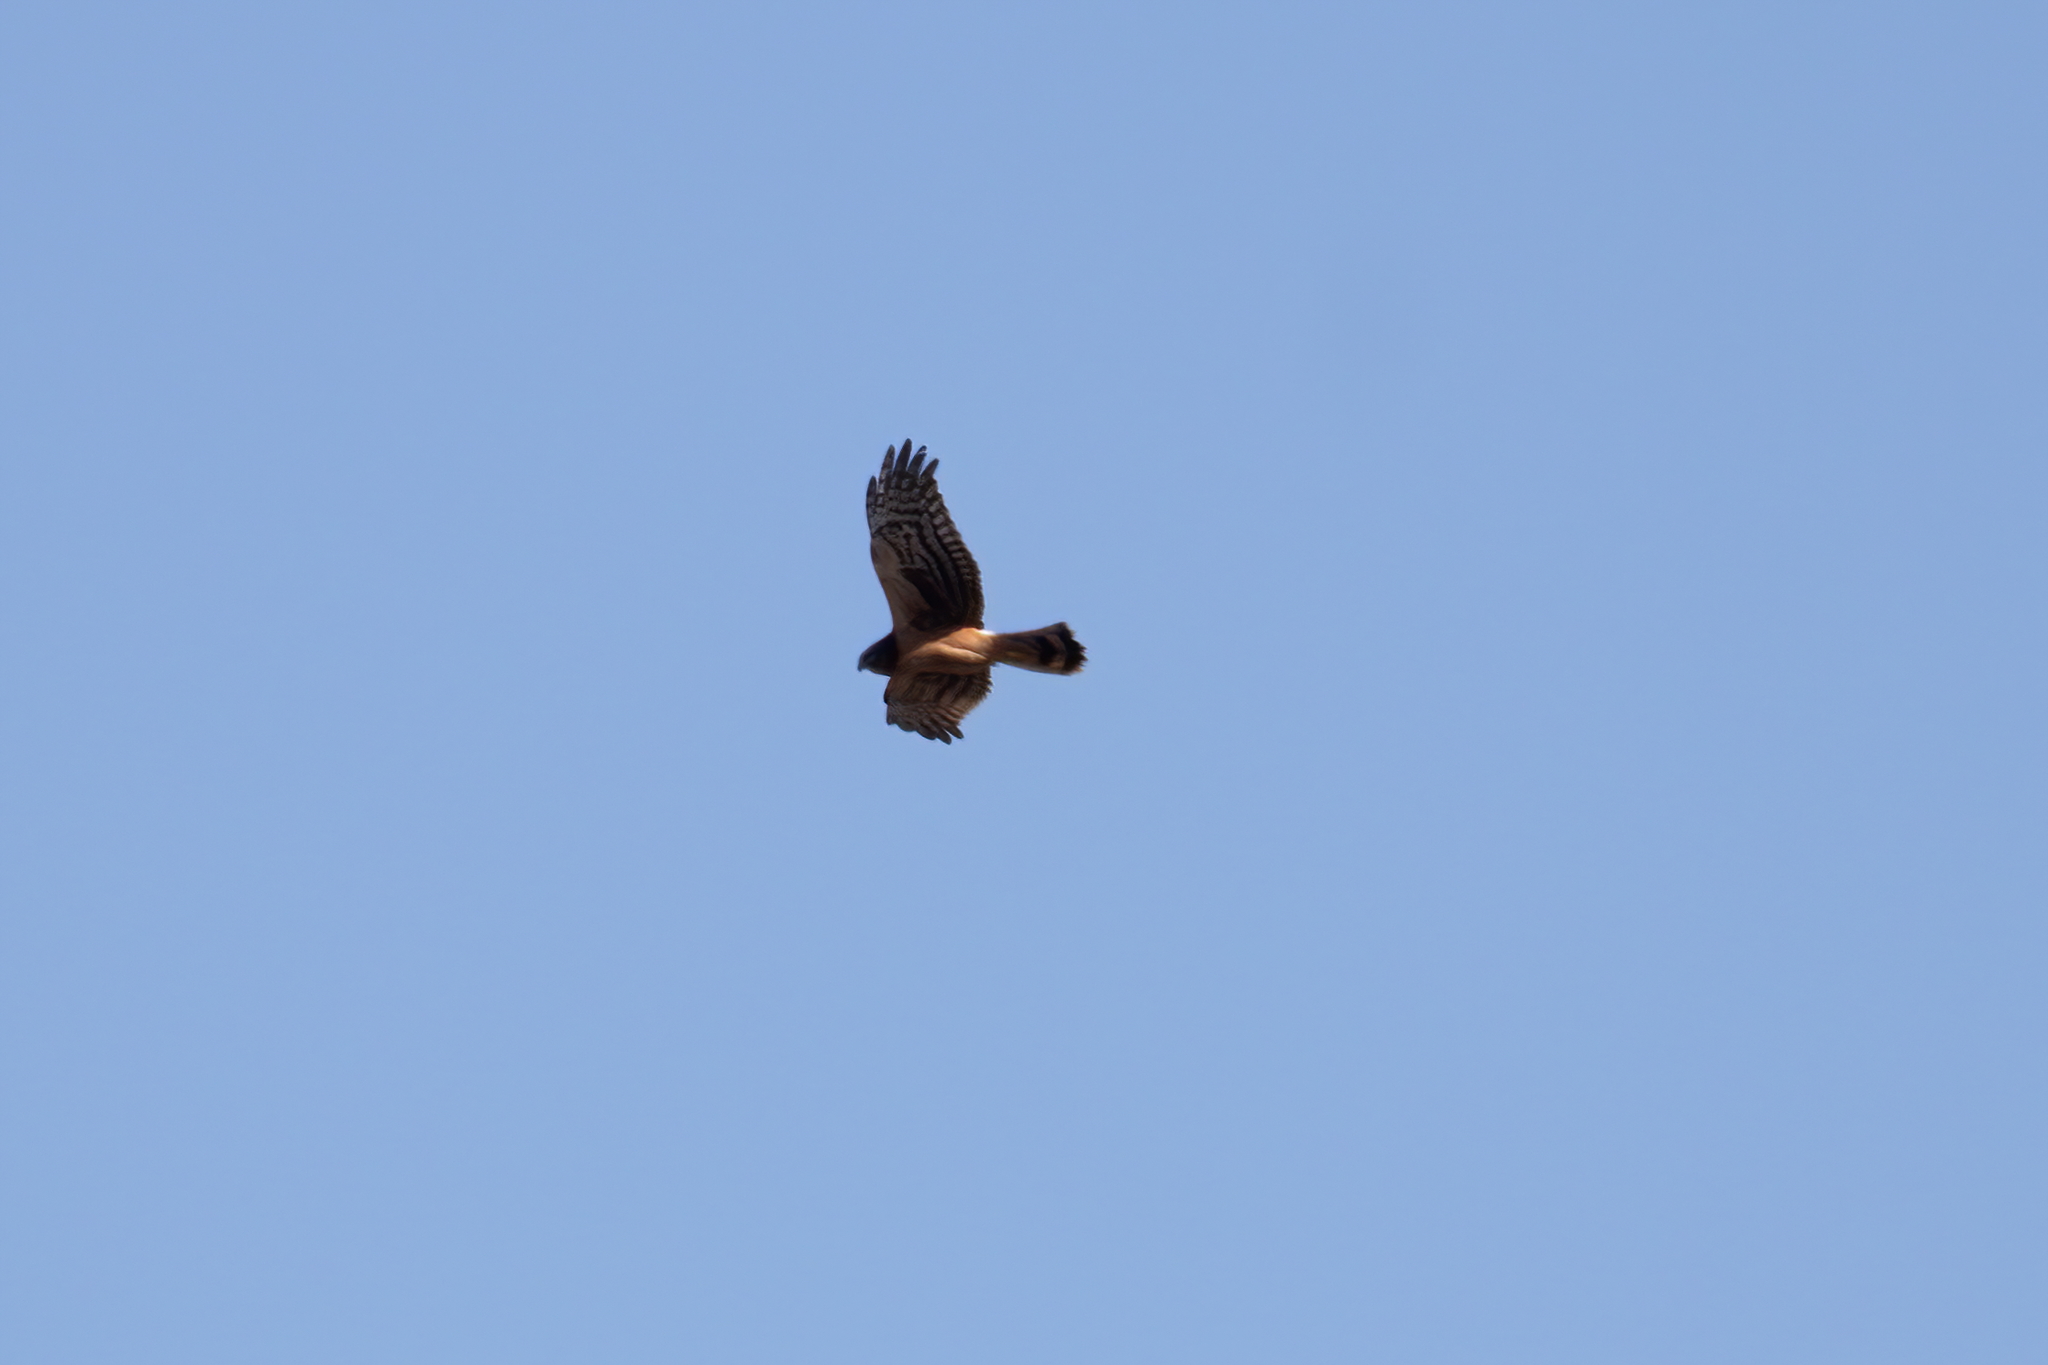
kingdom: Animalia
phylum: Chordata
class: Aves
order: Accipitriformes
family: Accipitridae
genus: Circus
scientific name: Circus cyaneus
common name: Hen harrier
